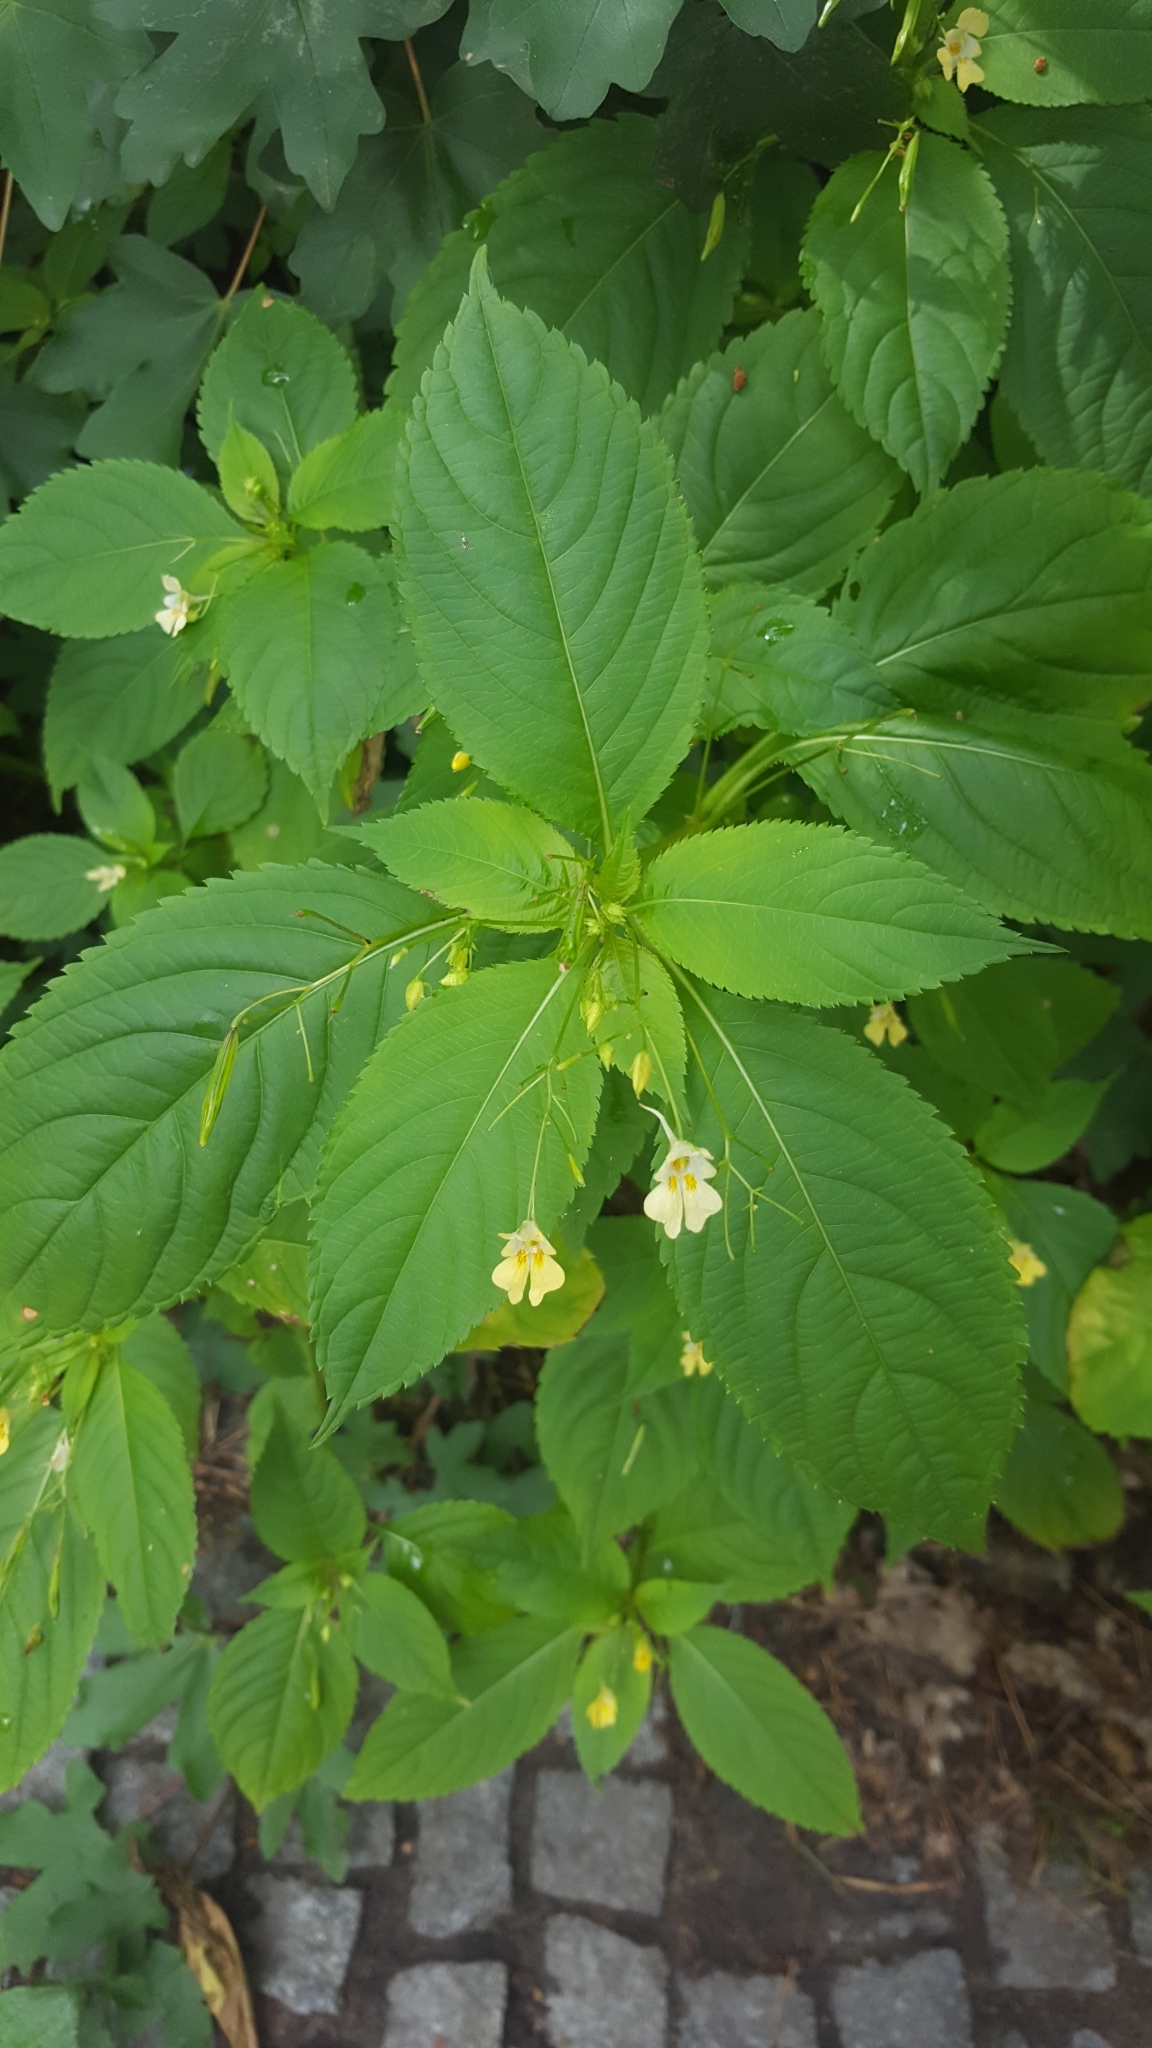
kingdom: Plantae
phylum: Tracheophyta
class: Magnoliopsida
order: Ericales
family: Balsaminaceae
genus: Impatiens
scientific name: Impatiens parviflora
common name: Small balsam
